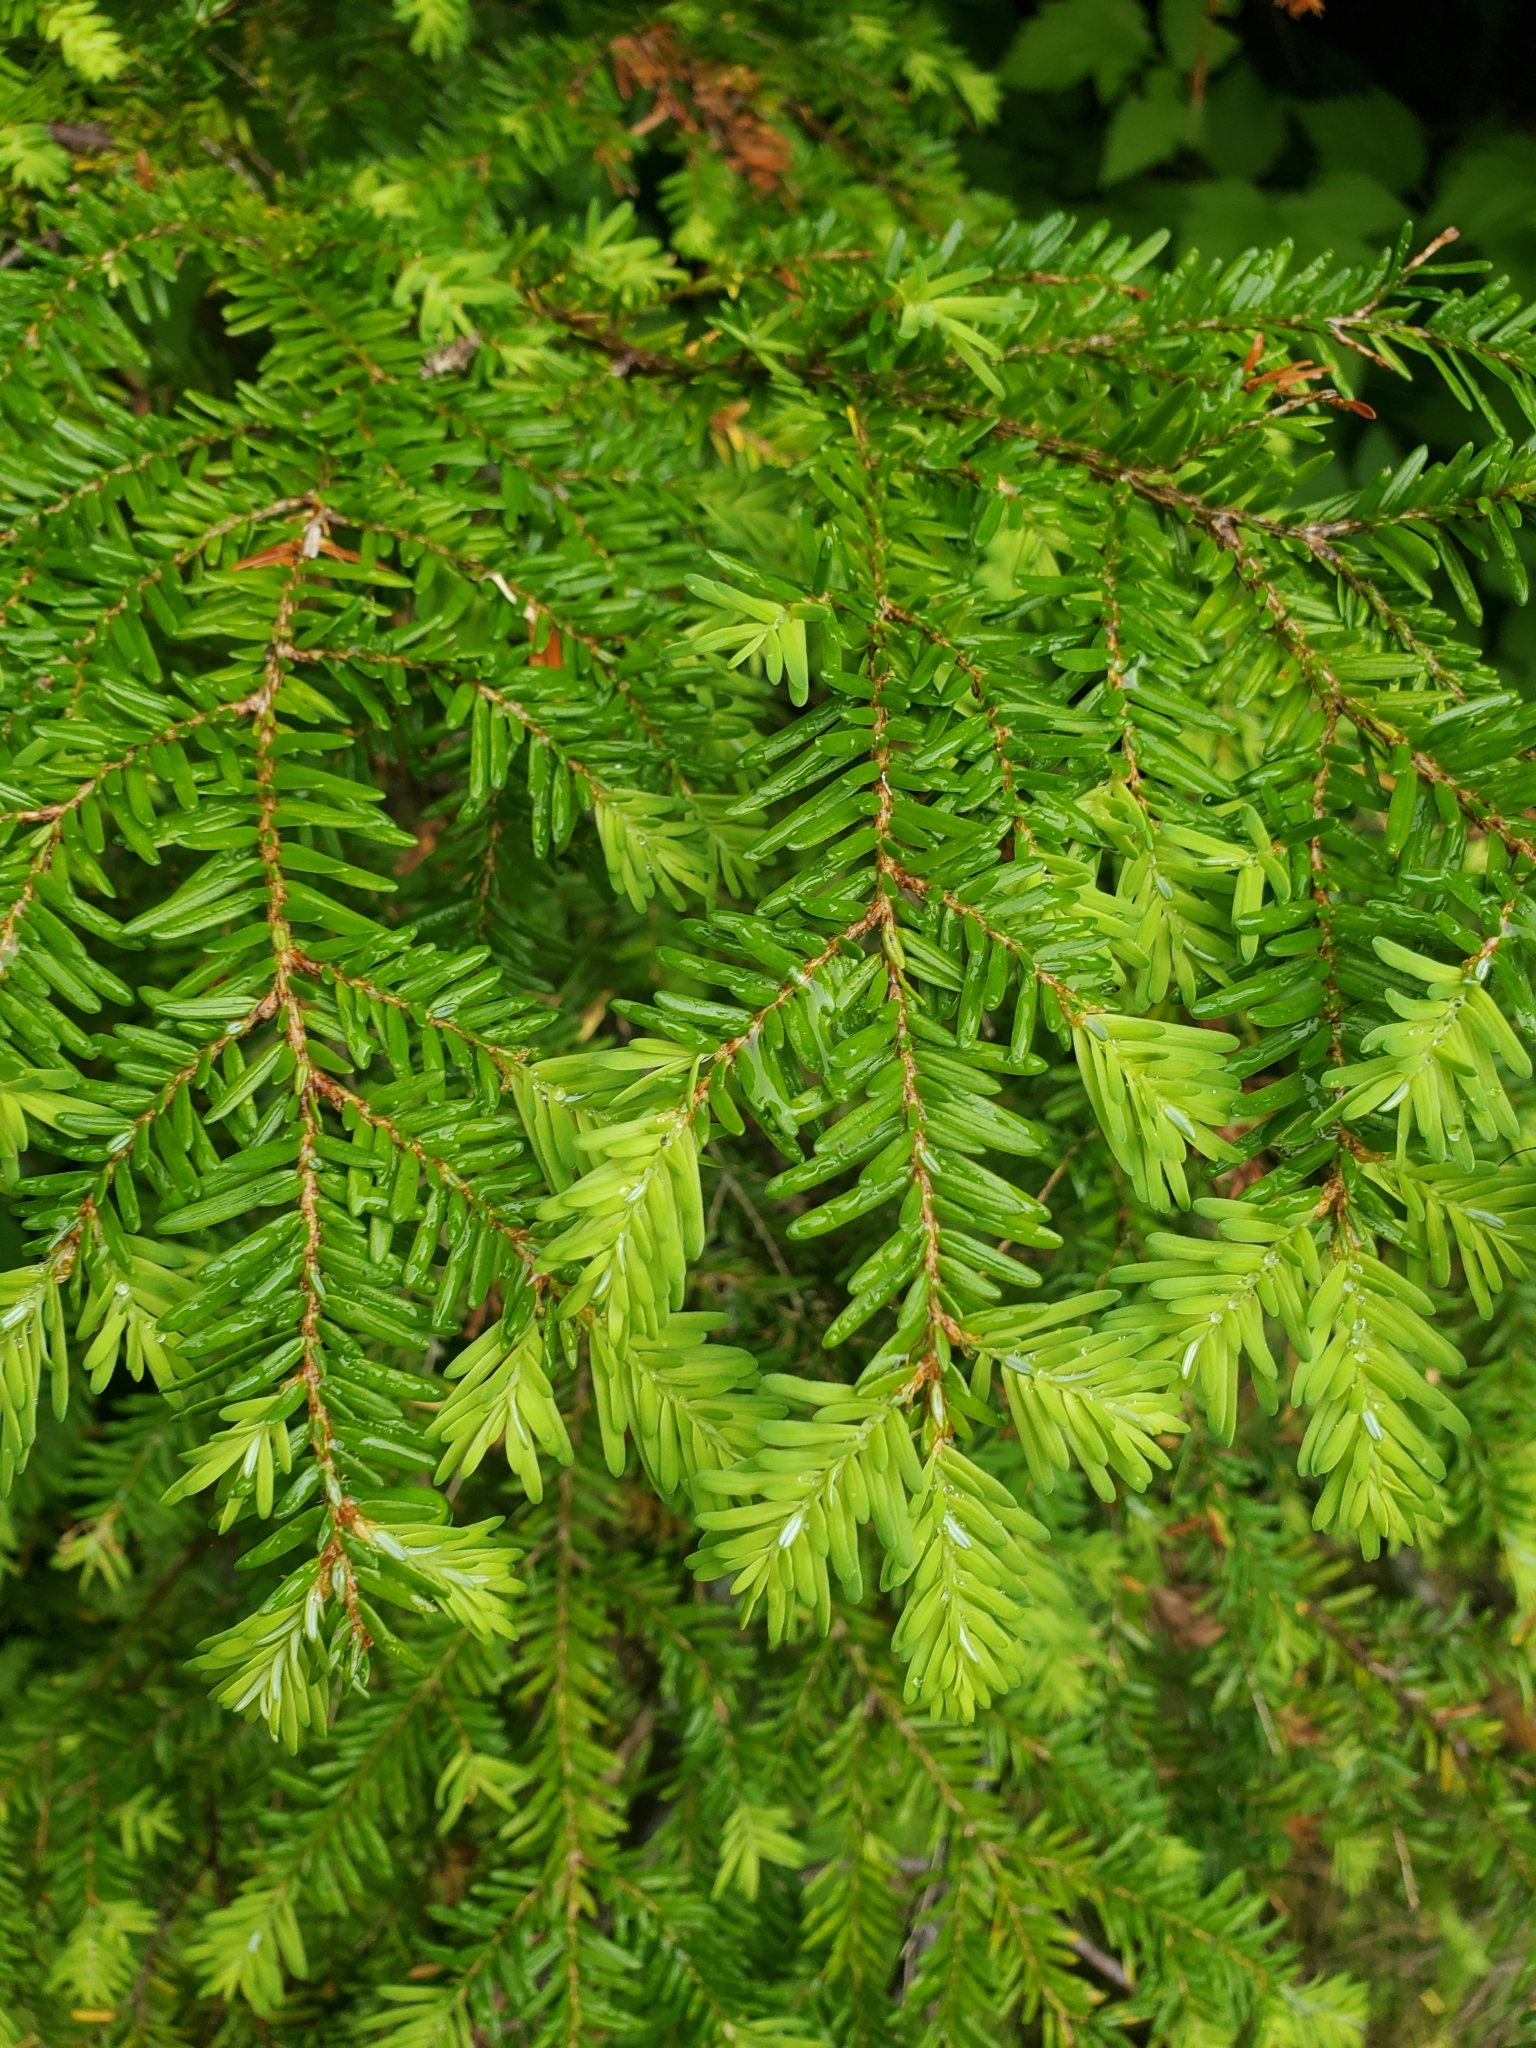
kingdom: Plantae
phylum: Tracheophyta
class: Pinopsida
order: Pinales
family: Pinaceae
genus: Tsuga
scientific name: Tsuga heterophylla
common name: Western hemlock
